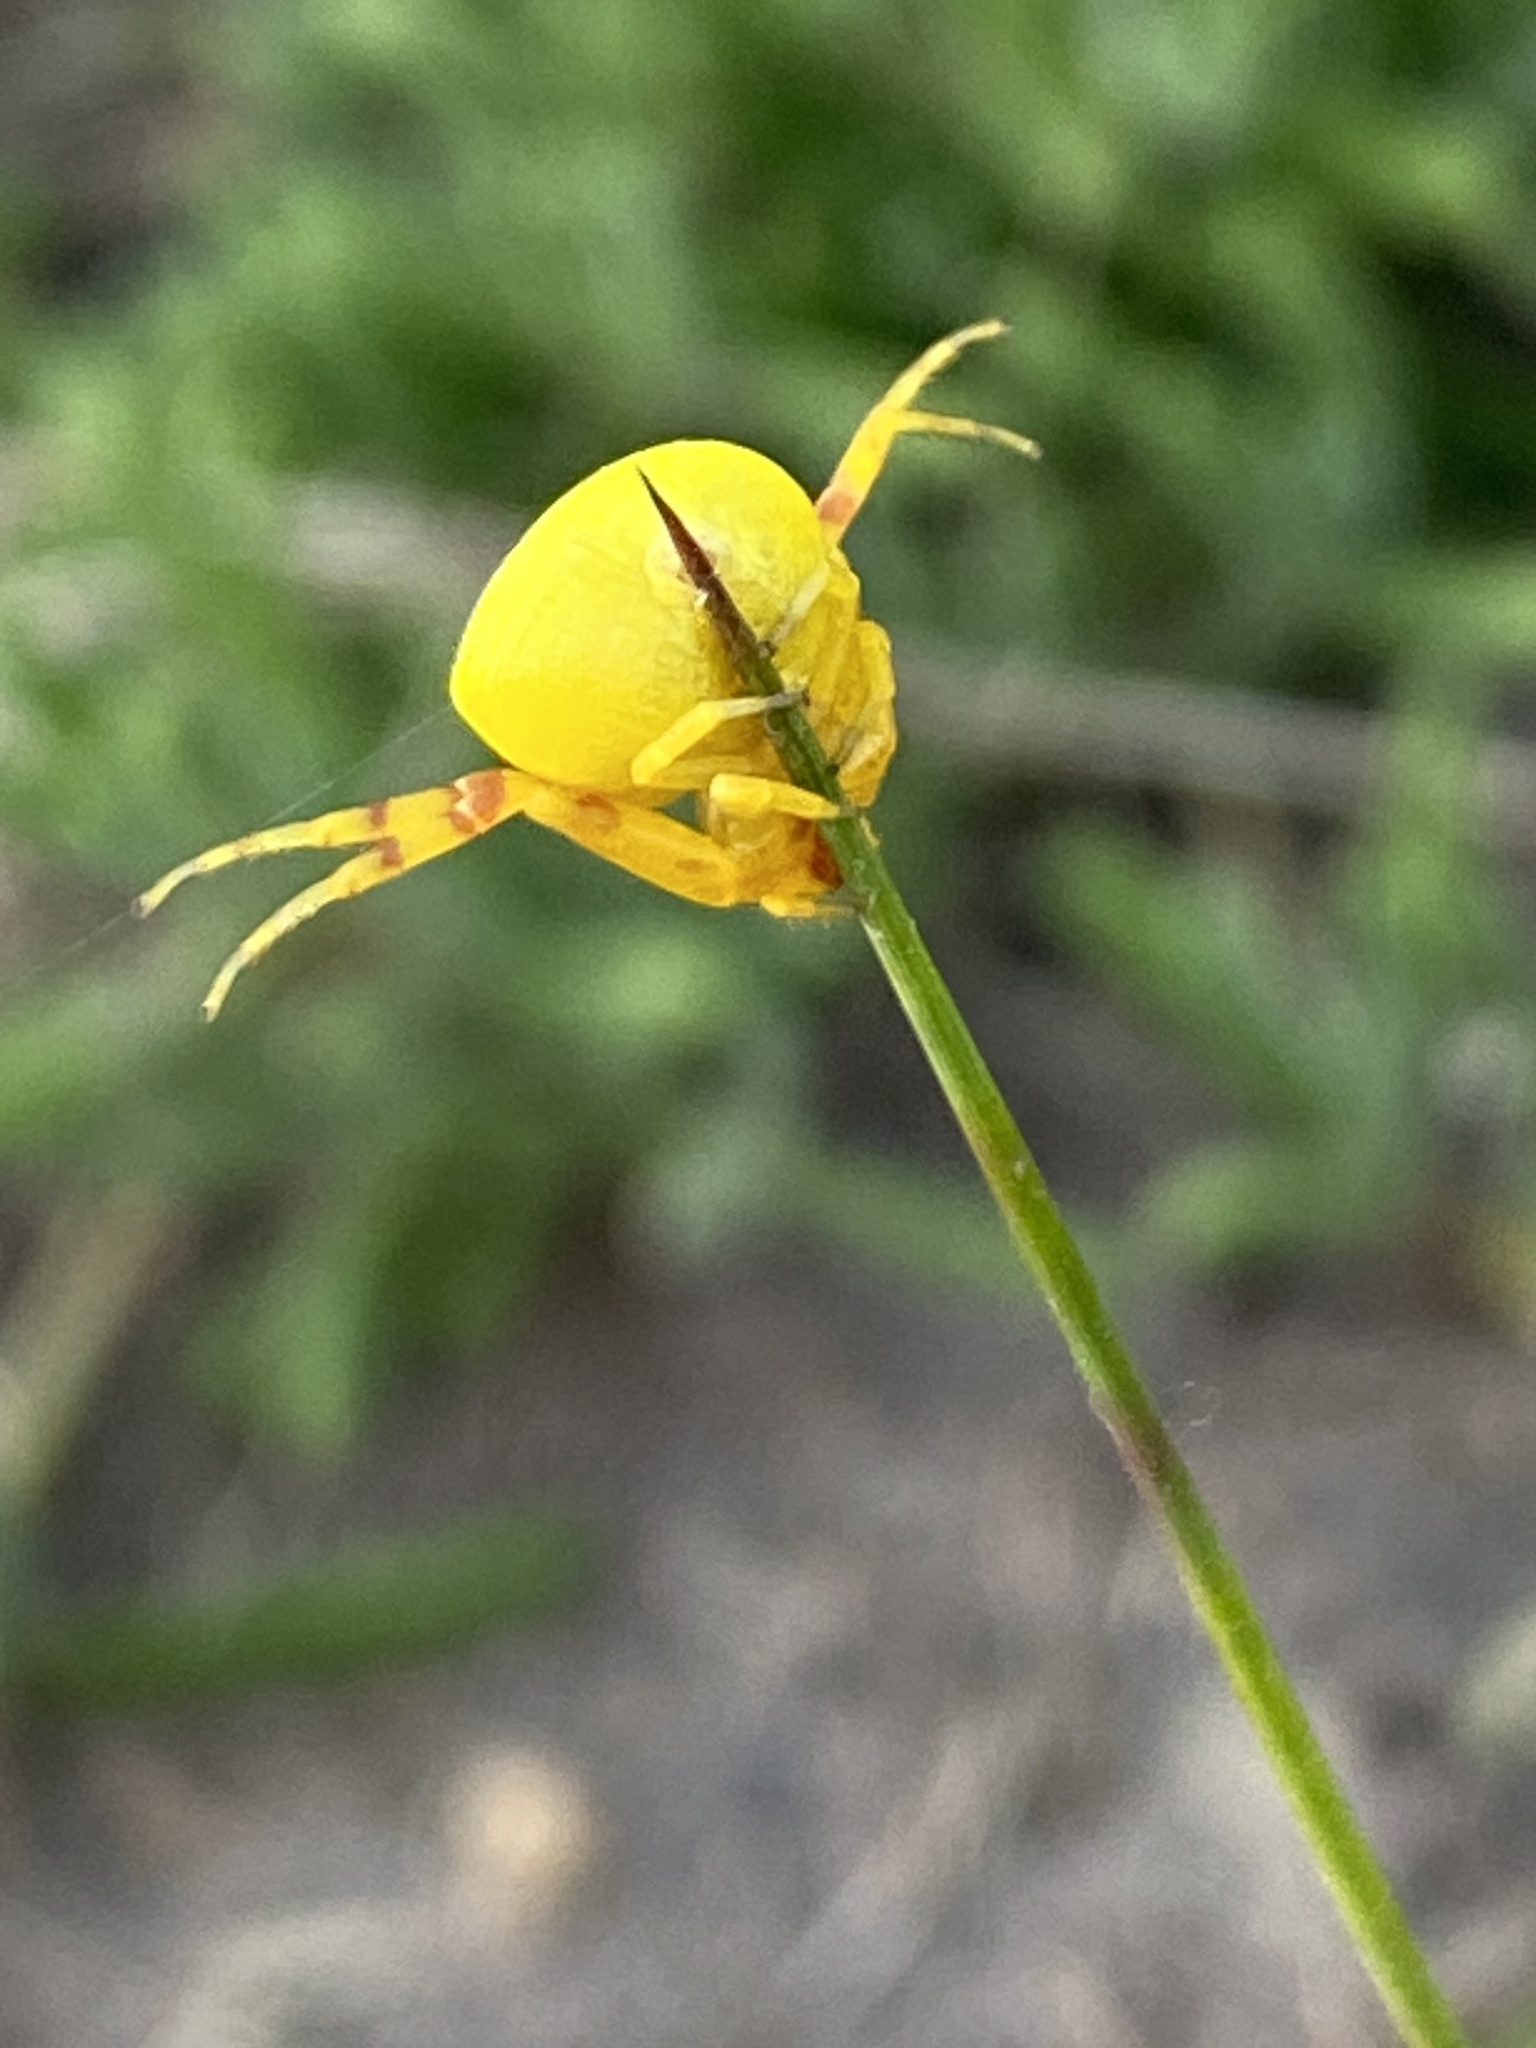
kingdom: Animalia
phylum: Arthropoda
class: Arachnida
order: Araneae
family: Thomisidae
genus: Thomisus
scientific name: Thomisus citrinellus
